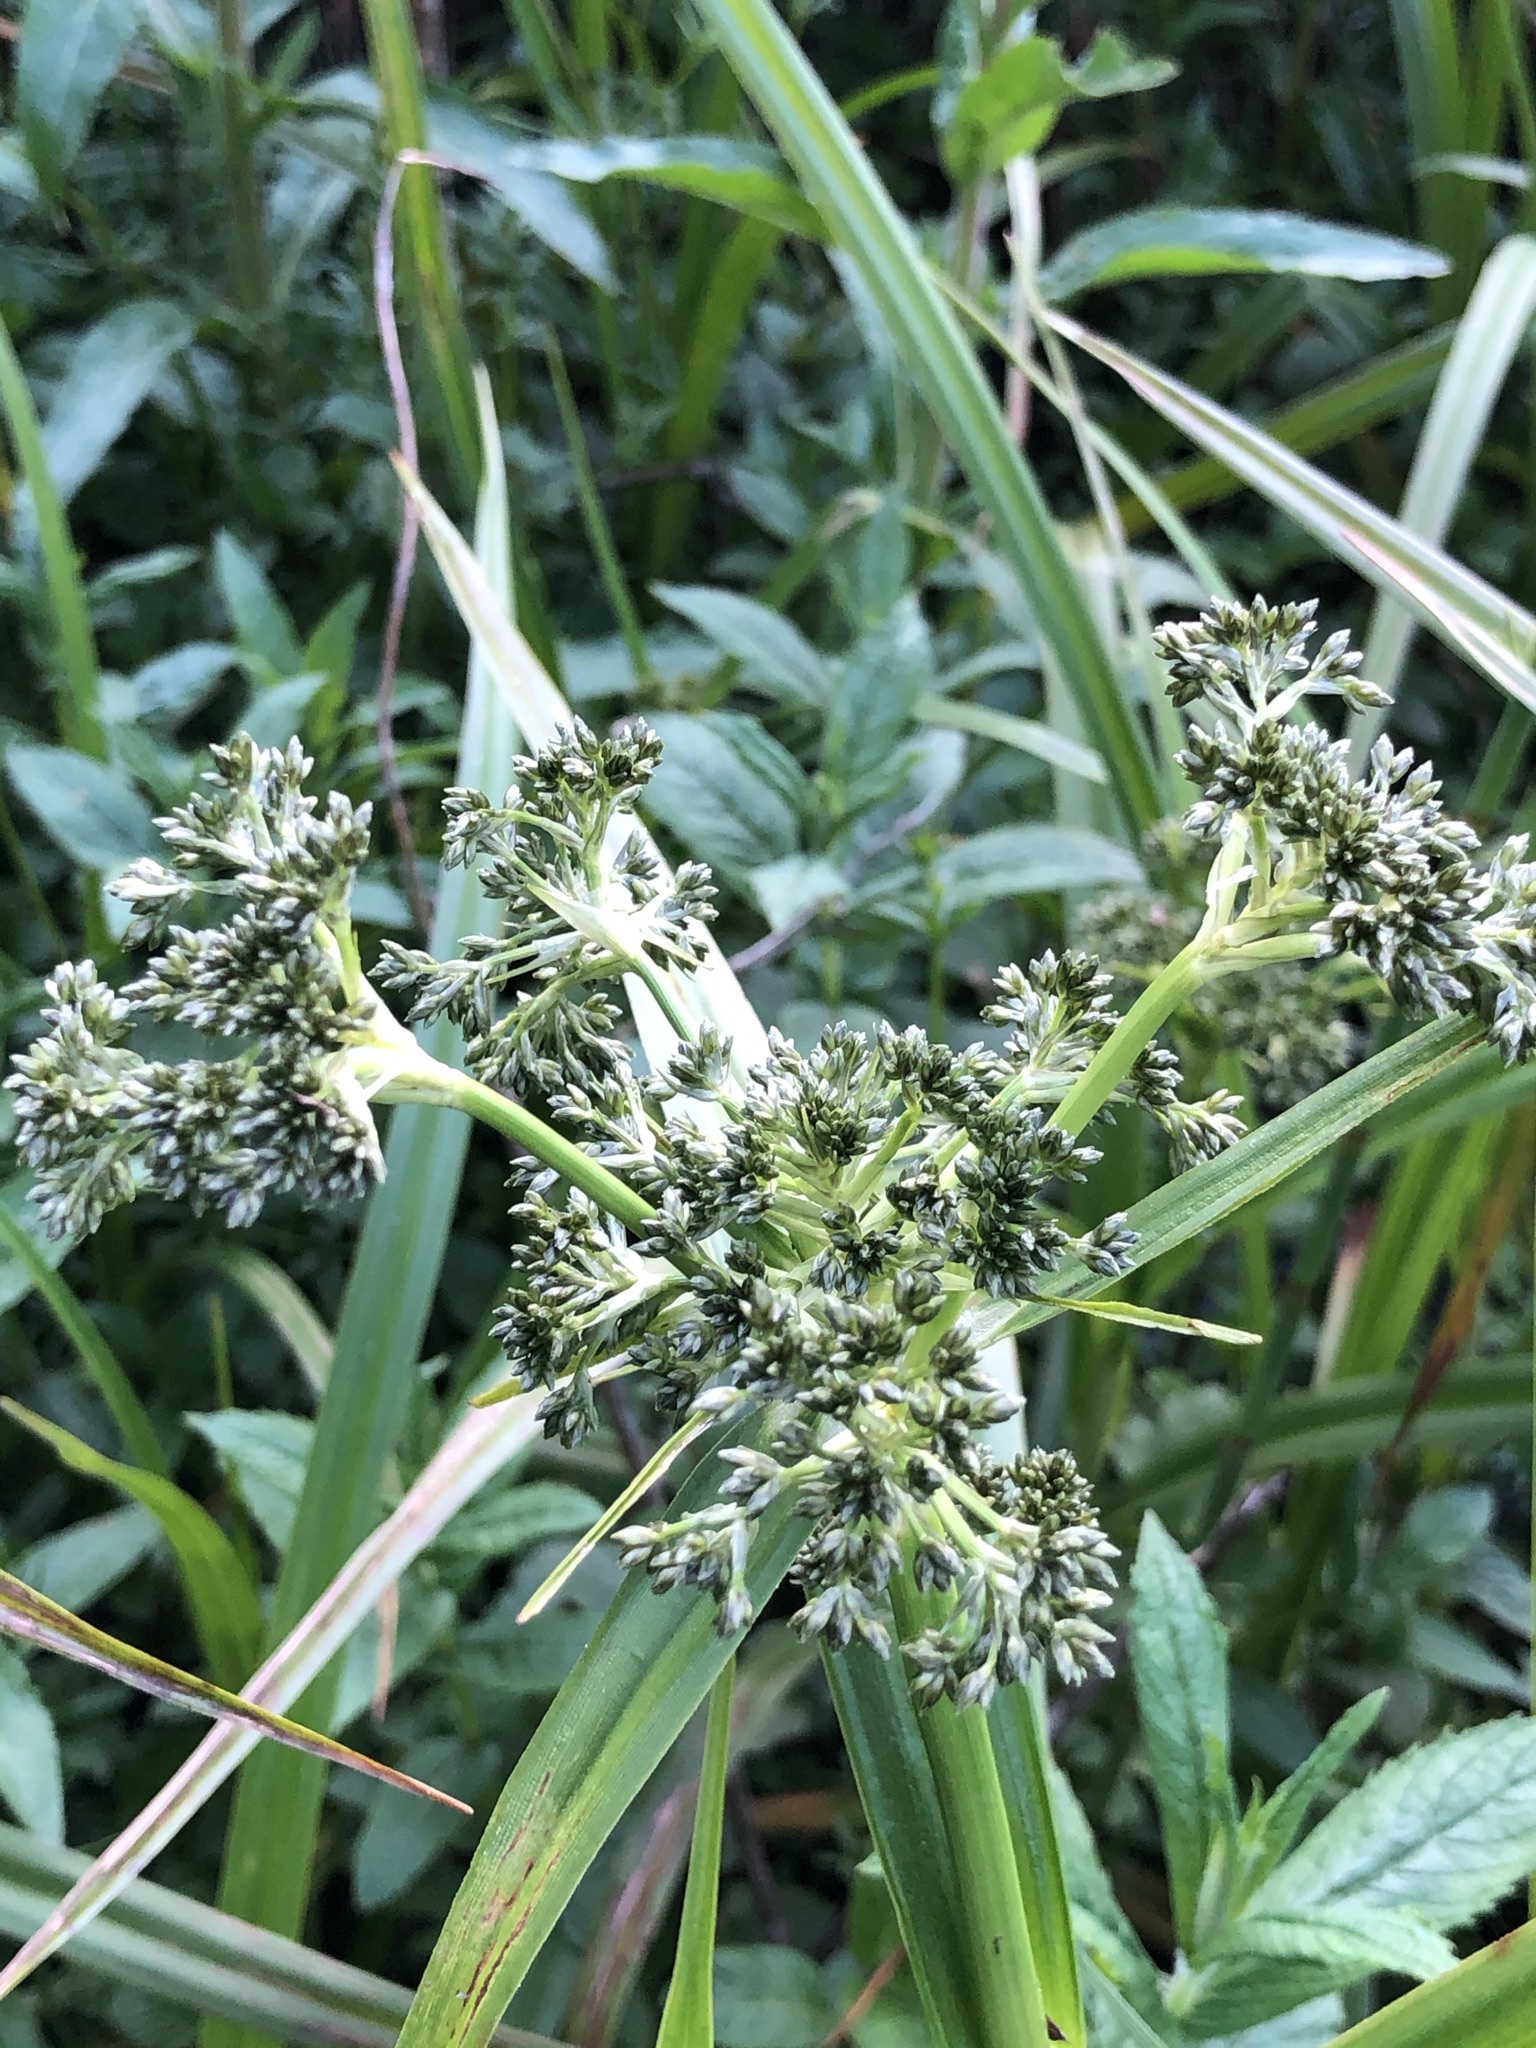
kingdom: Plantae
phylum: Tracheophyta
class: Liliopsida
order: Poales
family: Cyperaceae
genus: Scirpus
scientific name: Scirpus sylvaticus
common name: Wood club-rush
